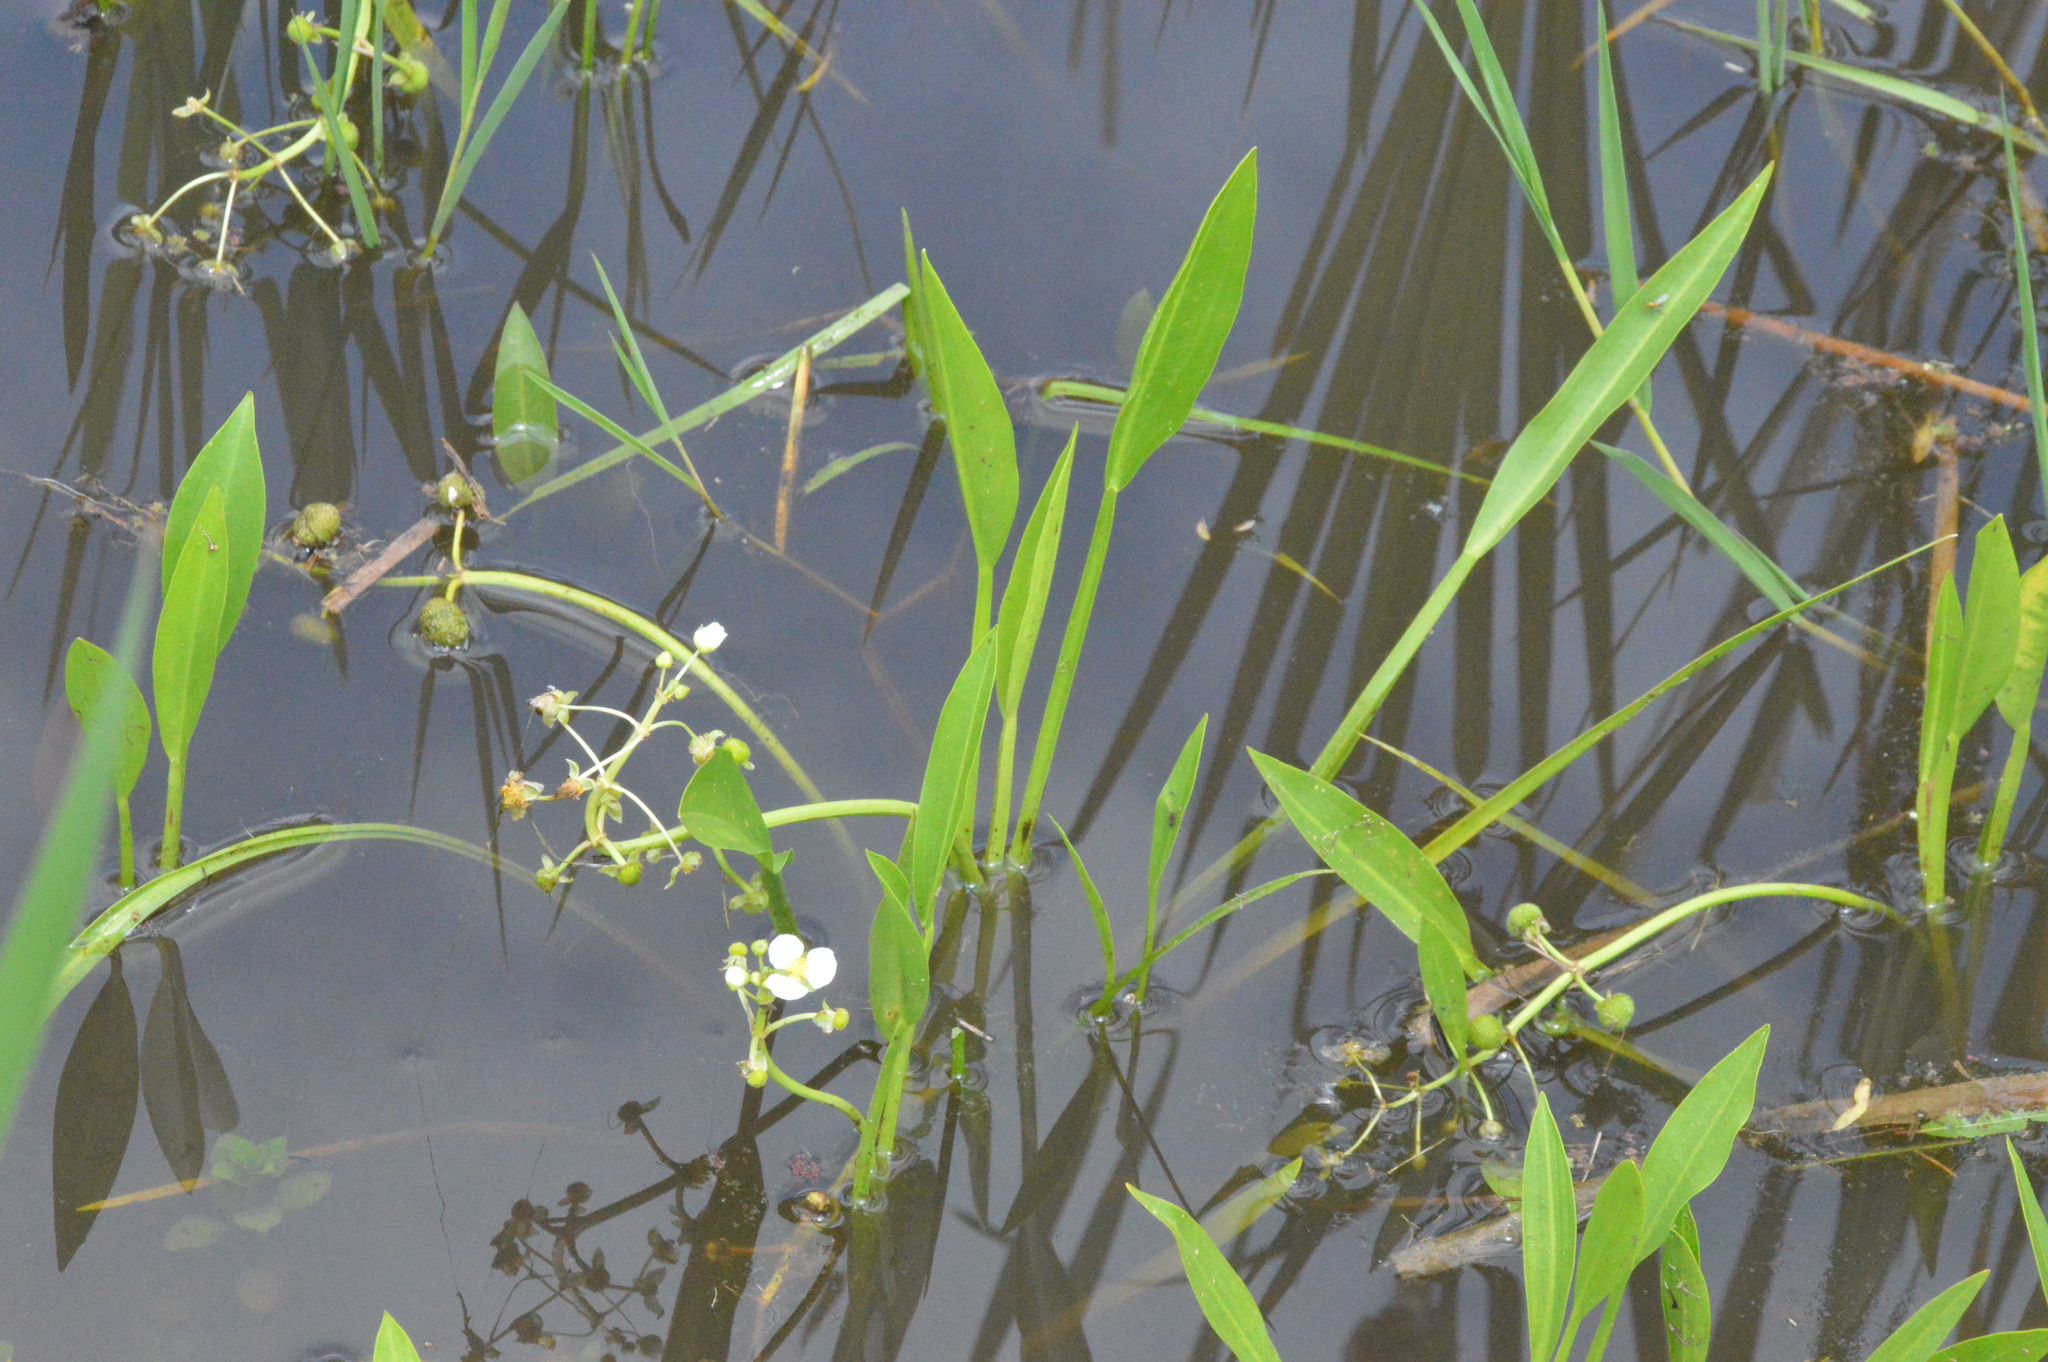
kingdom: Plantae
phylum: Tracheophyta
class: Liliopsida
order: Alismatales
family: Alismataceae
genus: Sagittaria
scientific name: Sagittaria platyphylla
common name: Broad-leaf arrowhead
